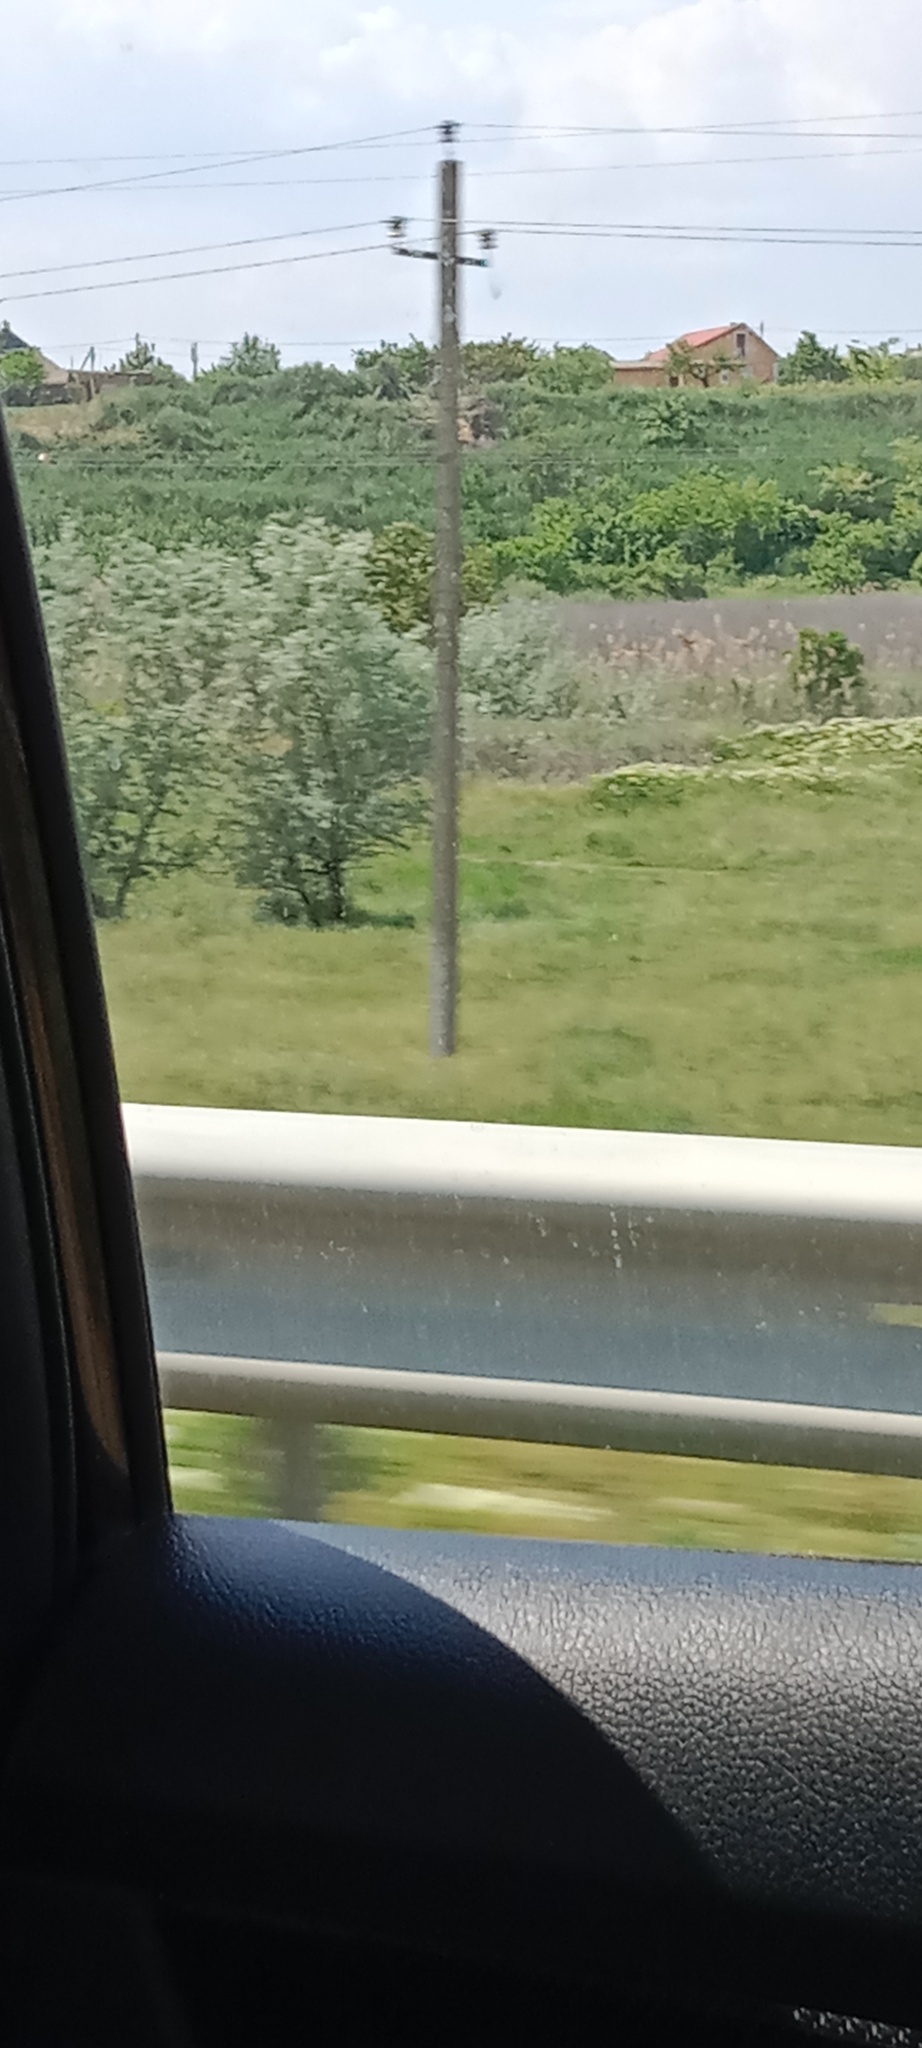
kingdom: Plantae
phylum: Tracheophyta
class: Magnoliopsida
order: Rosales
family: Elaeagnaceae
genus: Elaeagnus
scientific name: Elaeagnus angustifolia
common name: Russian olive
